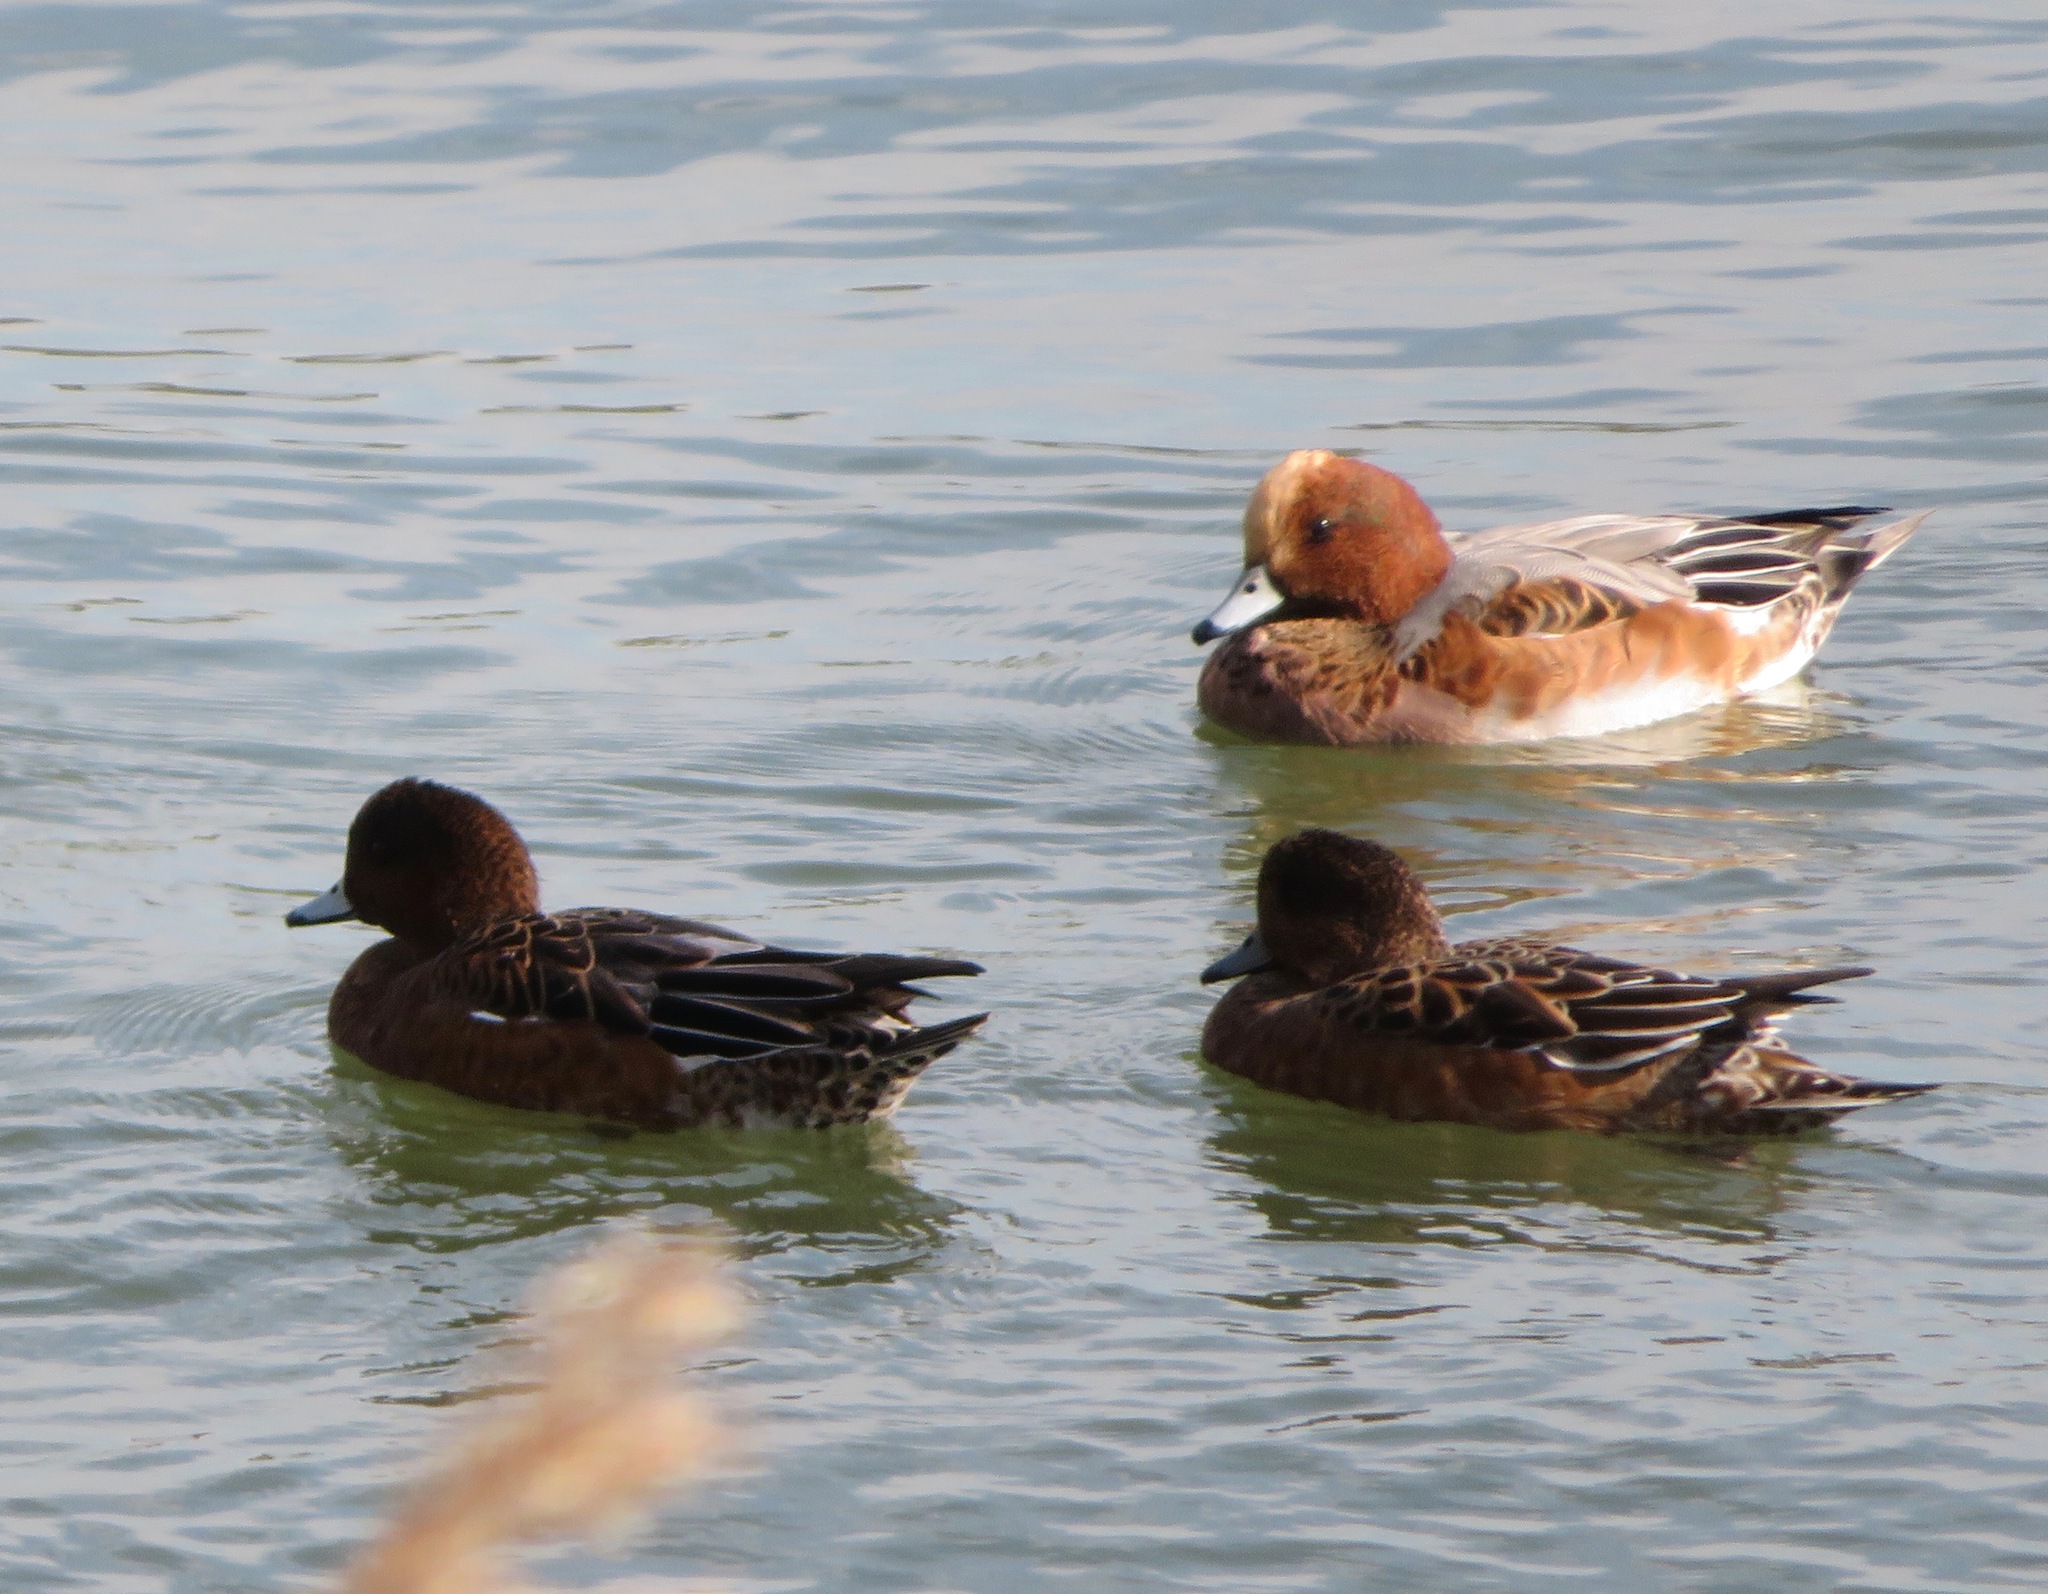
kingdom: Animalia
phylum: Chordata
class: Aves
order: Anseriformes
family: Anatidae
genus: Mareca
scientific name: Mareca penelope
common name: Eurasian wigeon
